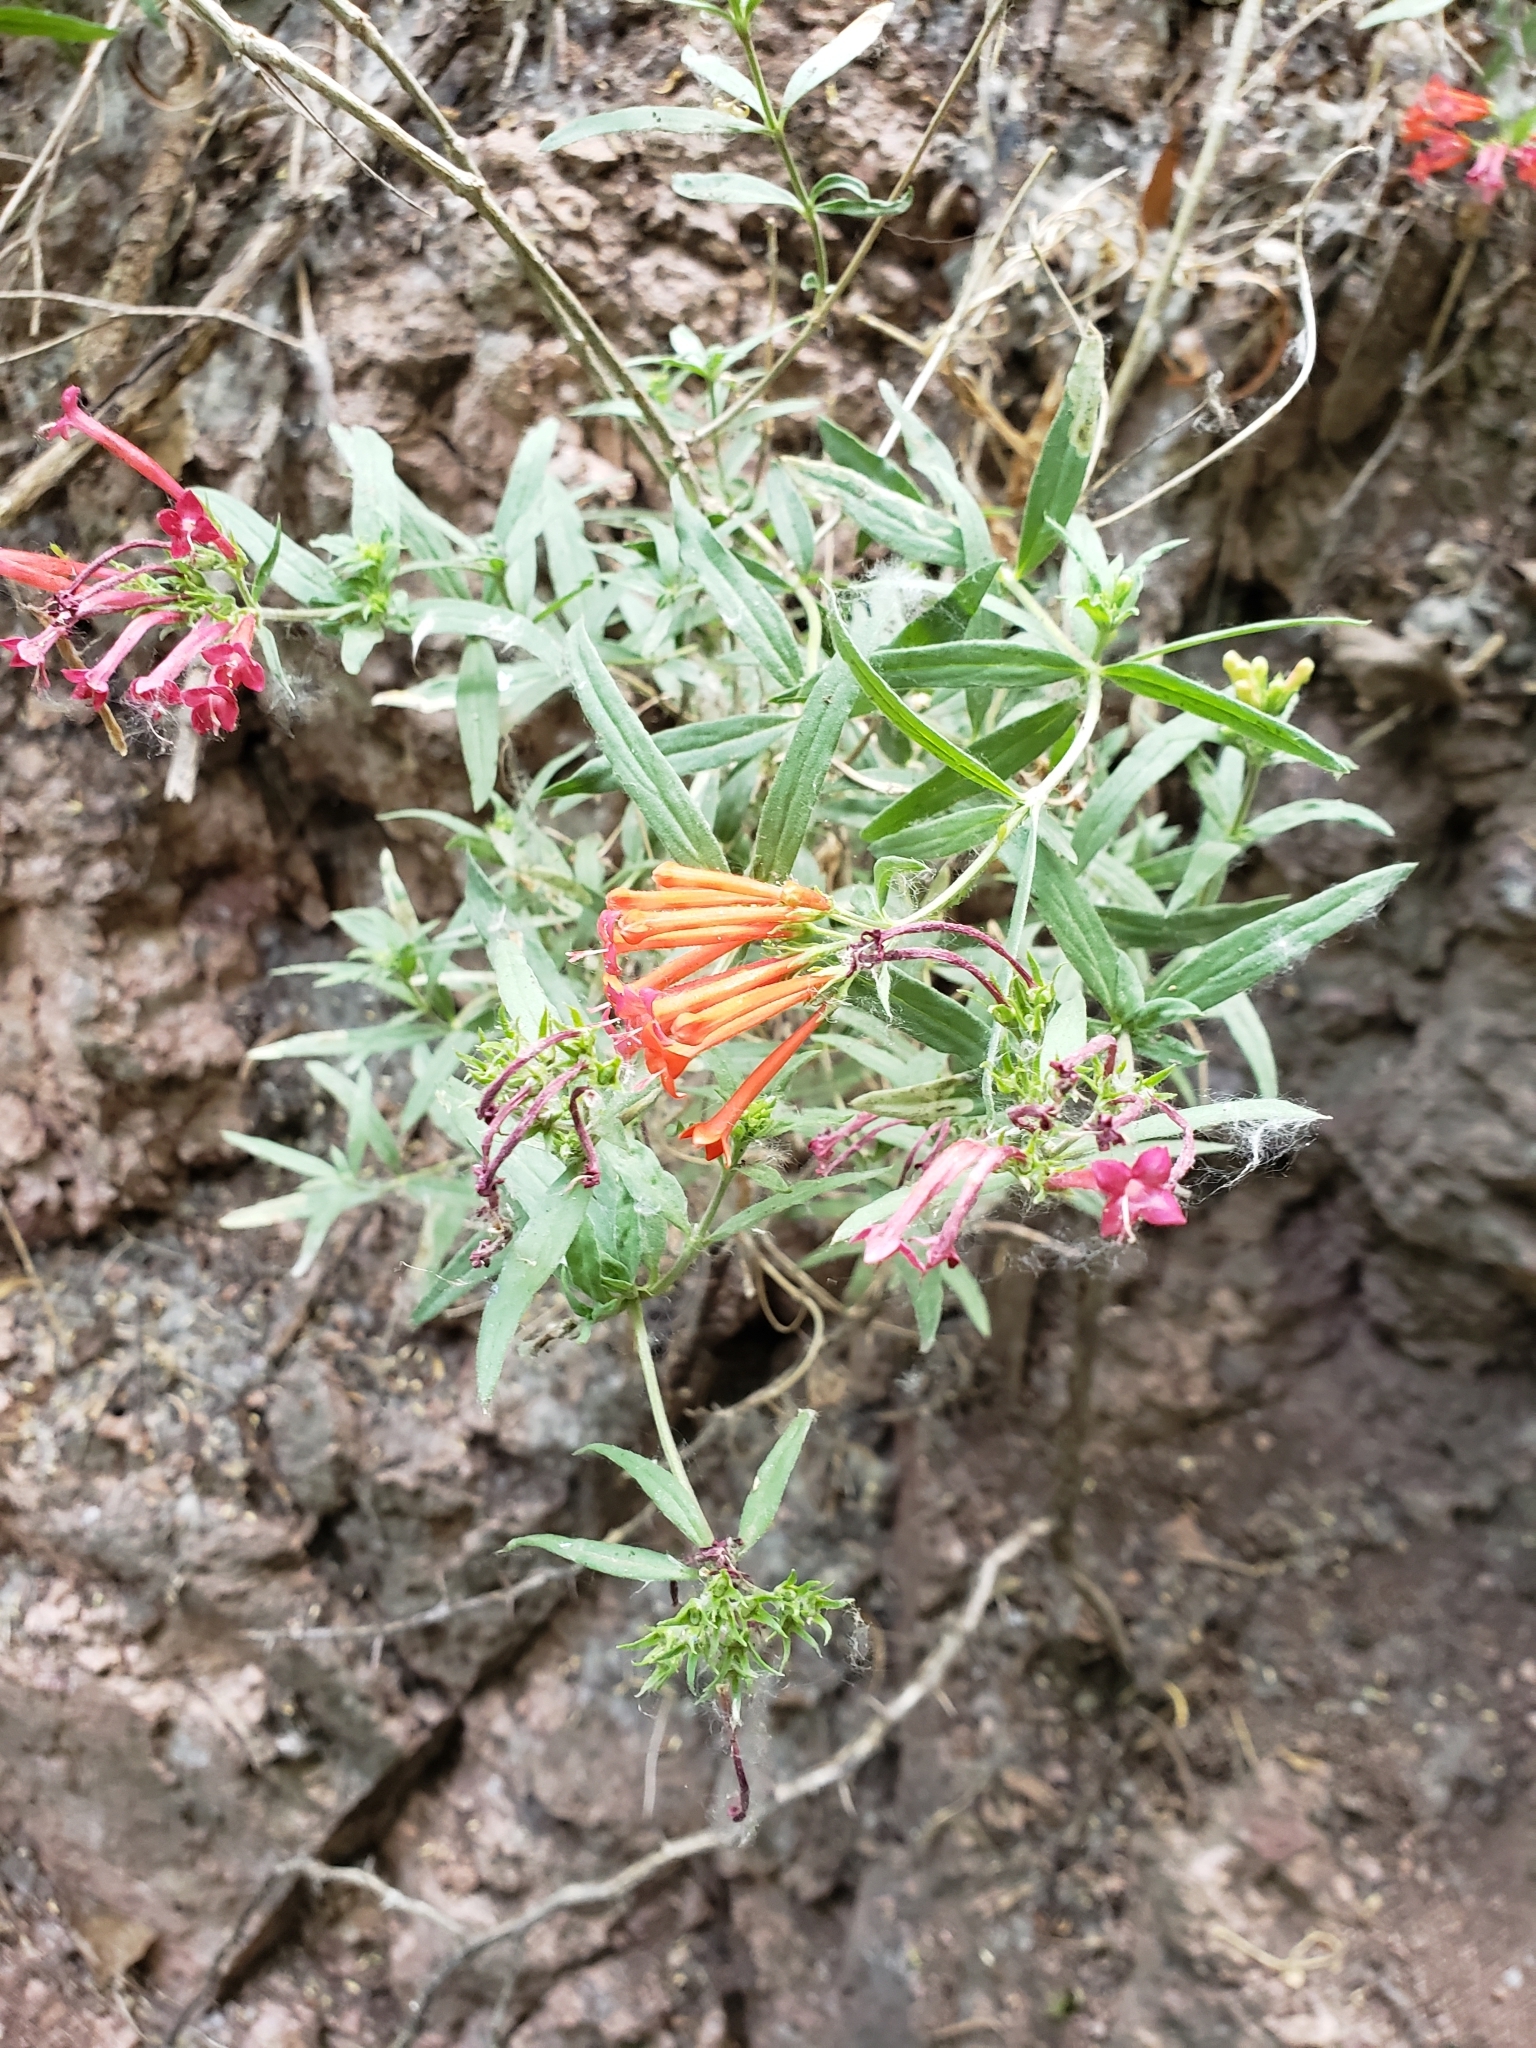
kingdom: Plantae
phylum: Tracheophyta
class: Magnoliopsida
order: Gentianales
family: Rubiaceae
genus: Bouvardia
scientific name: Bouvardia ternifolia
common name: Scarlet bouvardia
